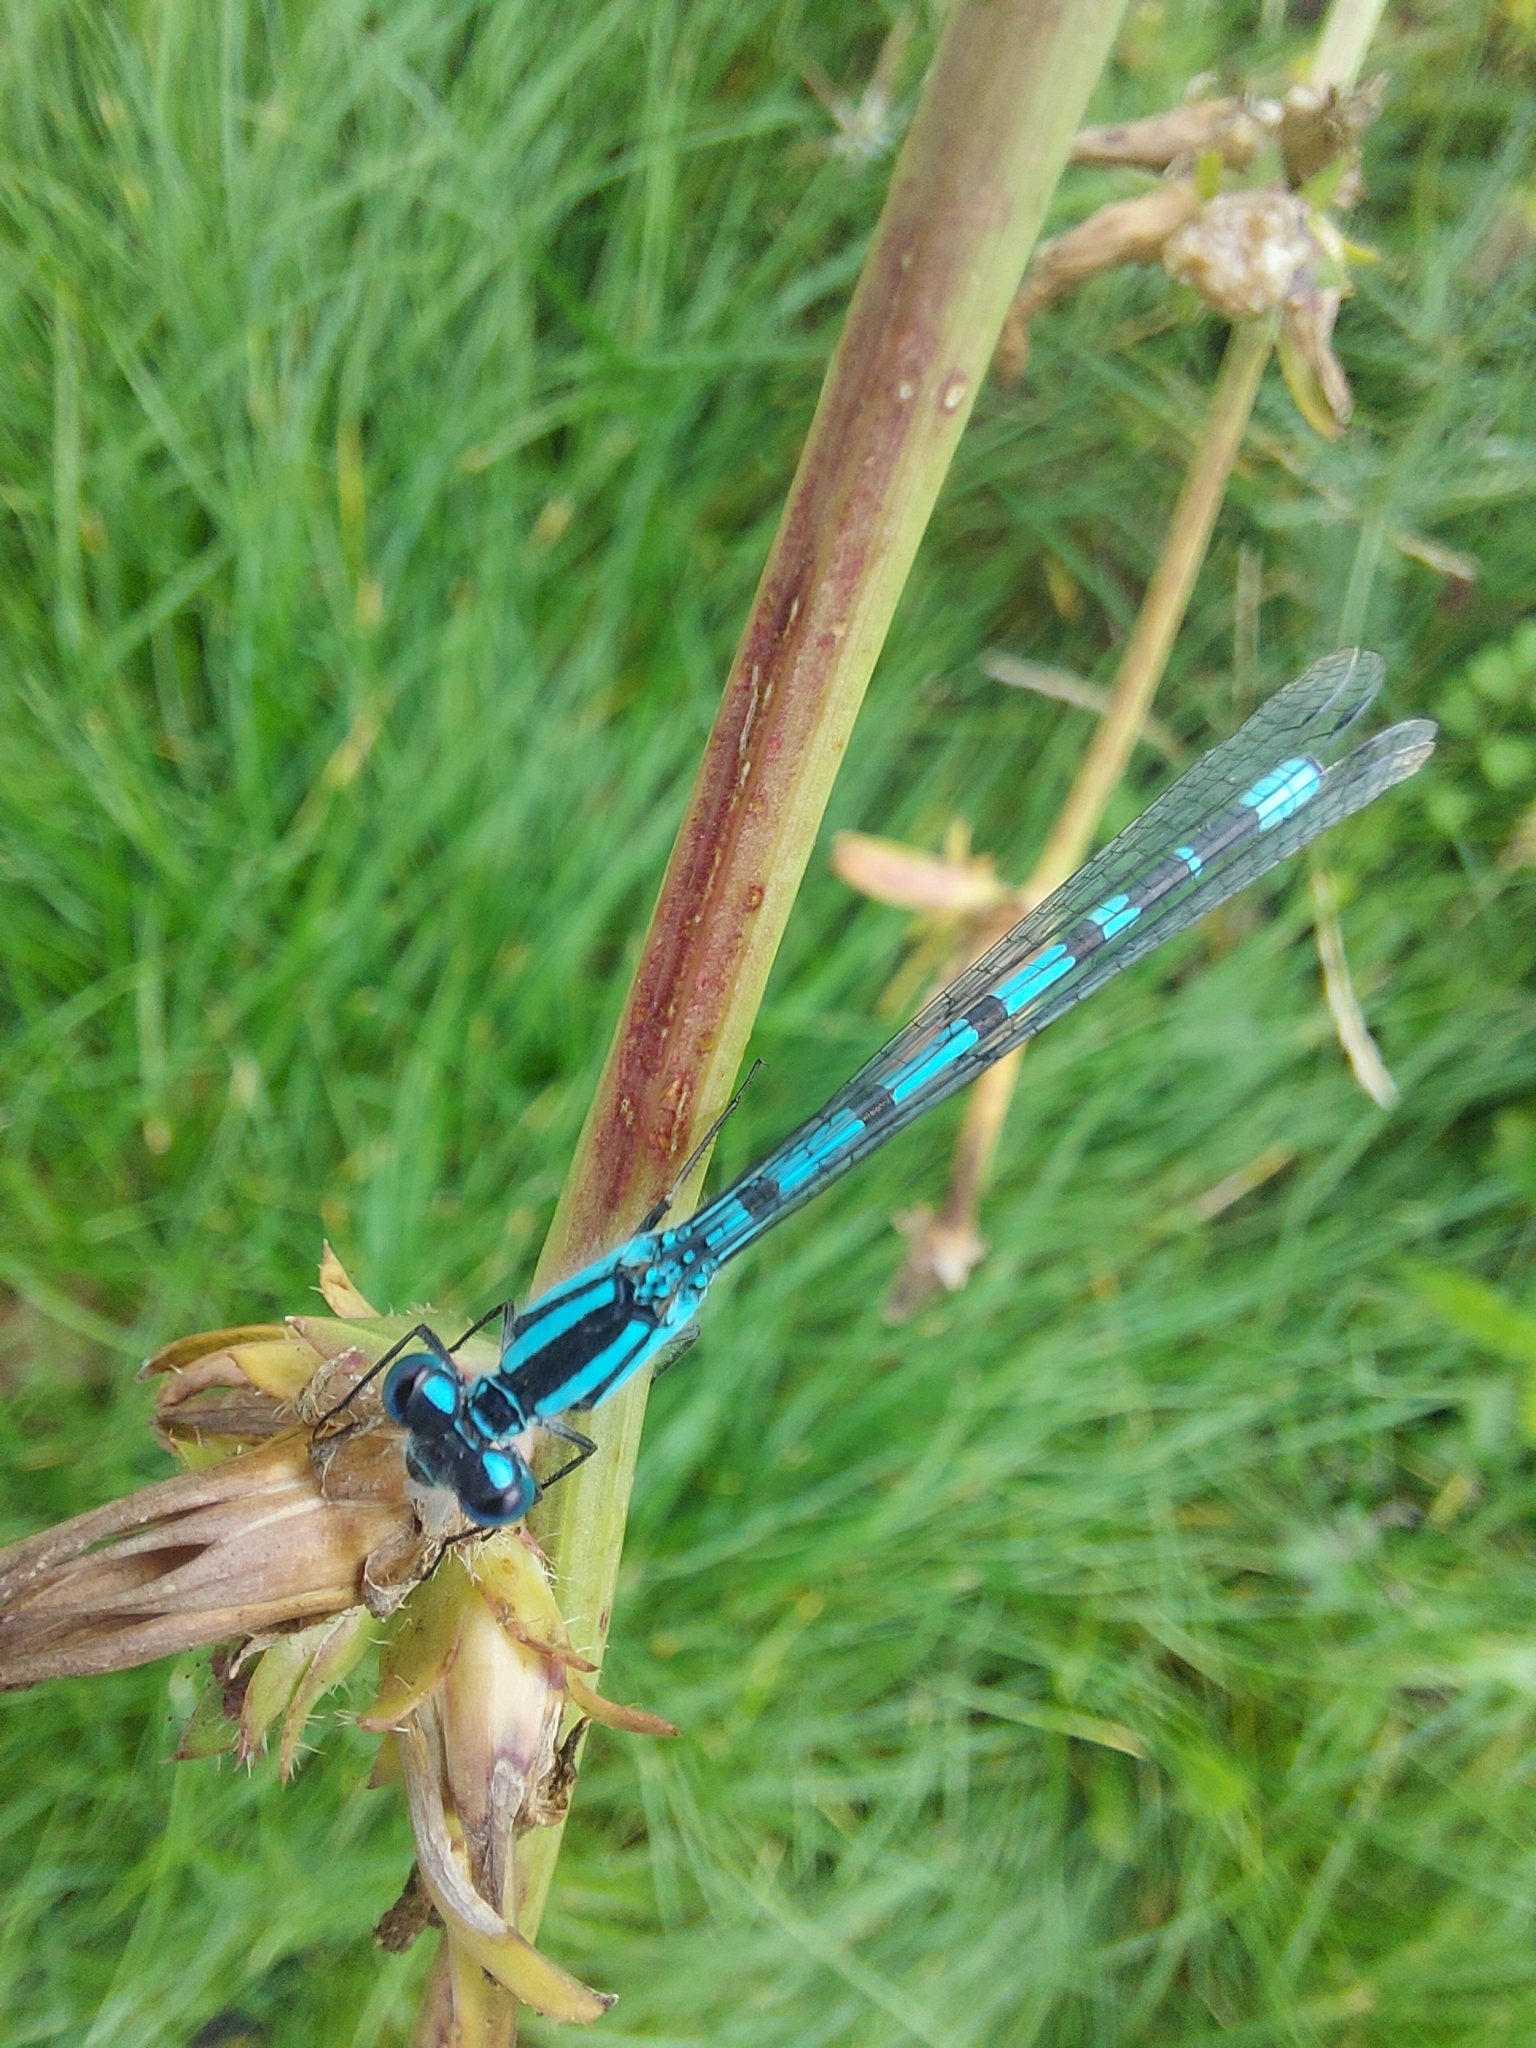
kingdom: Animalia
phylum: Arthropoda
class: Insecta
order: Odonata
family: Coenagrionidae
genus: Enallagma
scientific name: Enallagma cyathigerum
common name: Common blue damselfly
